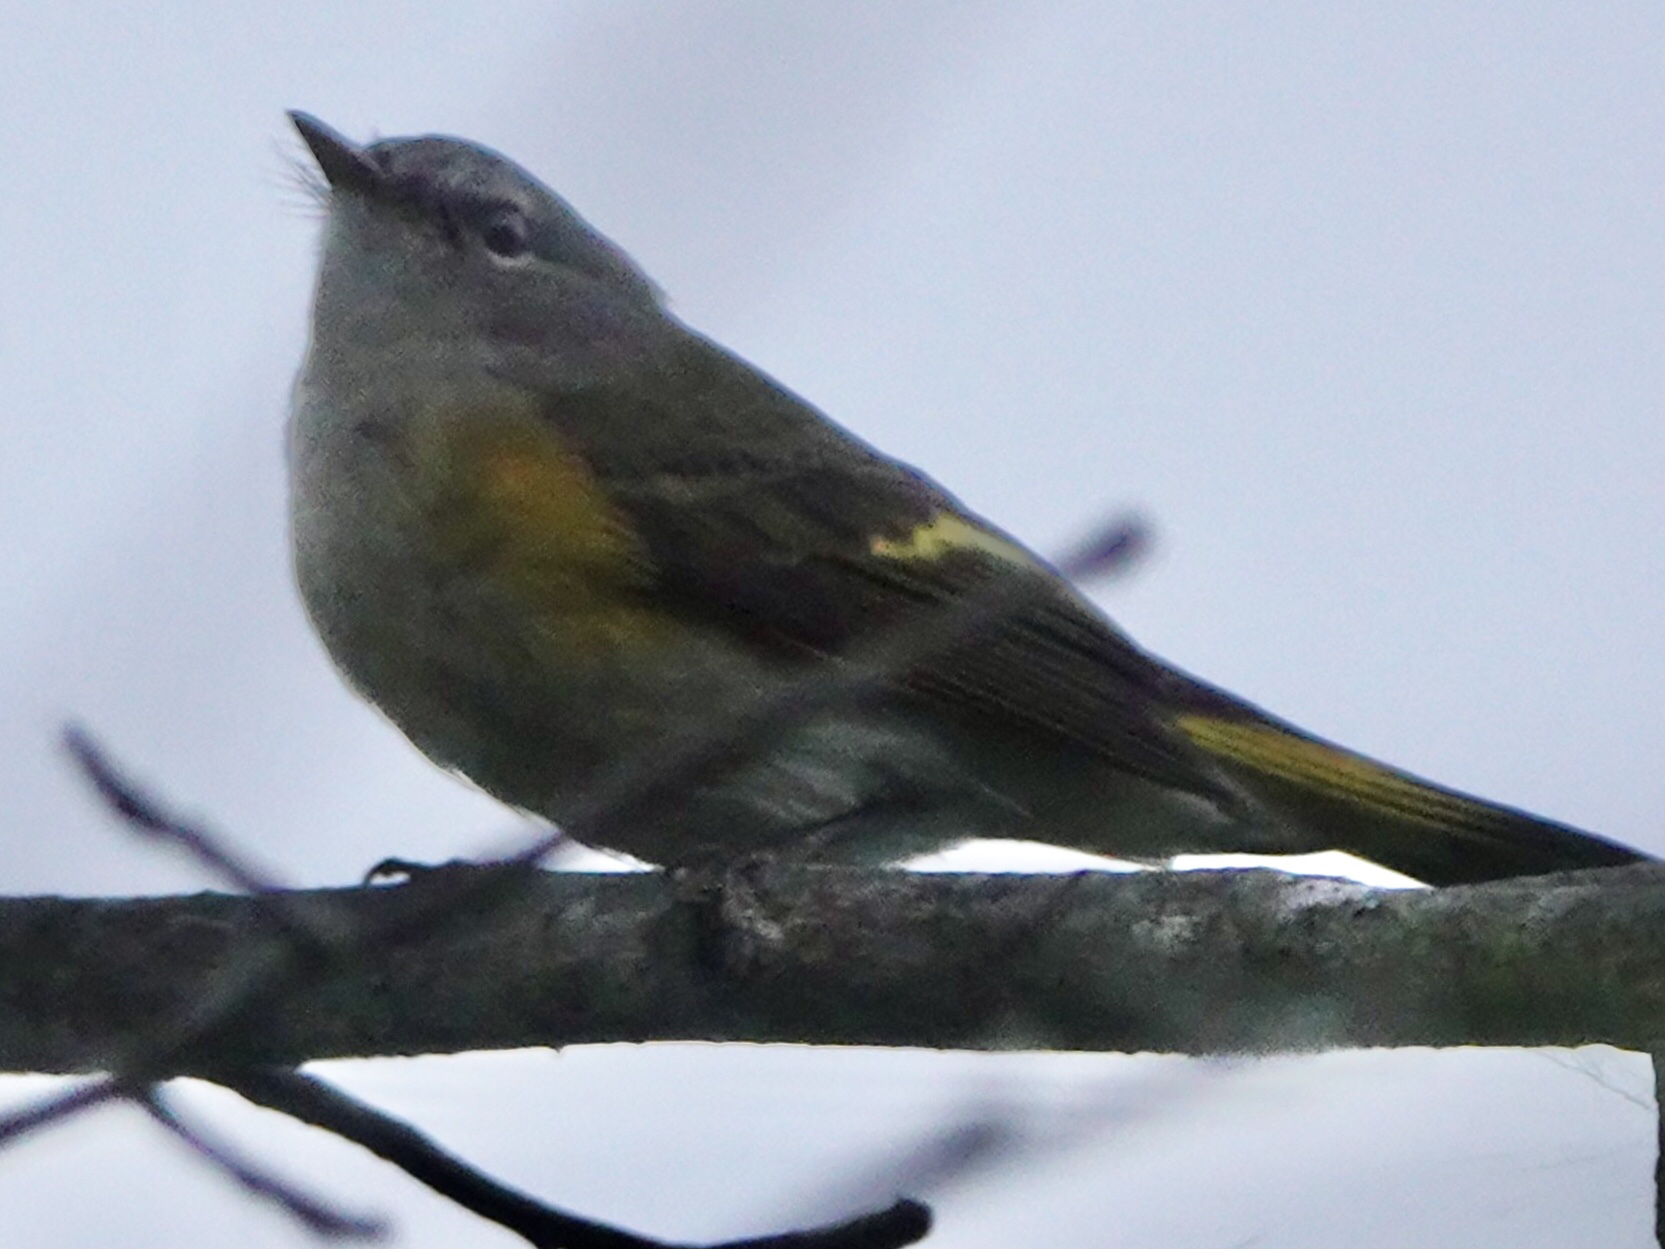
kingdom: Animalia
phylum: Chordata
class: Aves
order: Passeriformes
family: Parulidae
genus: Setophaga
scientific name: Setophaga ruticilla
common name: American redstart
